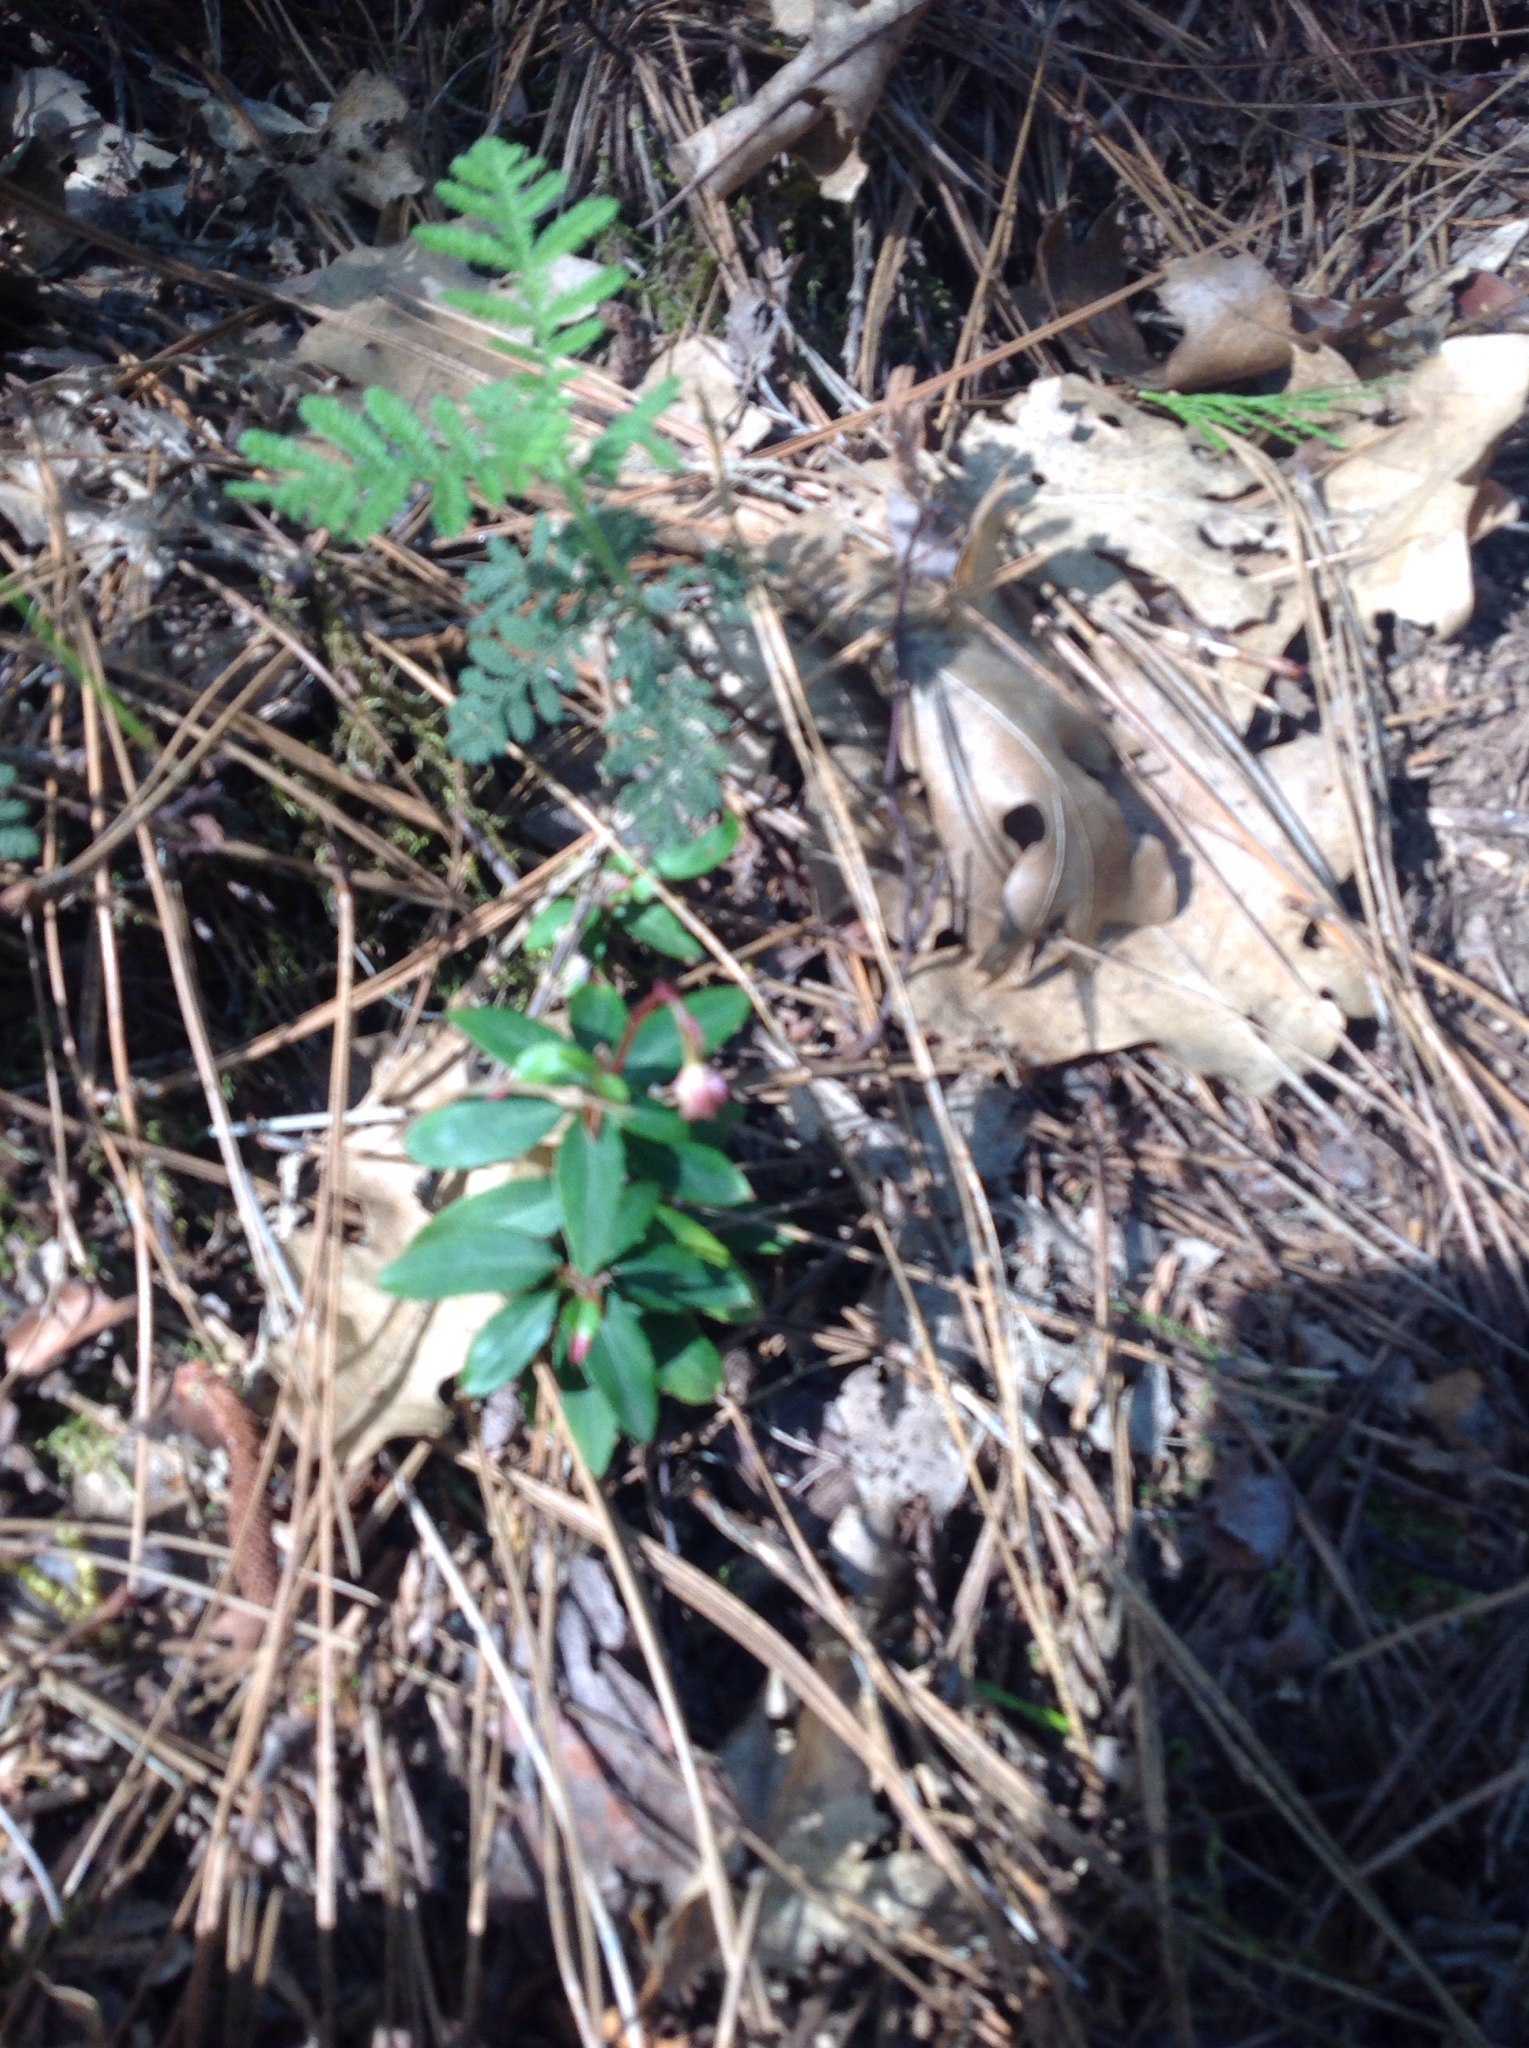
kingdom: Plantae
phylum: Tracheophyta
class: Magnoliopsida
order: Ericales
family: Ericaceae
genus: Chimaphila
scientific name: Chimaphila menziesii
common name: Menzies' pipsissewa
